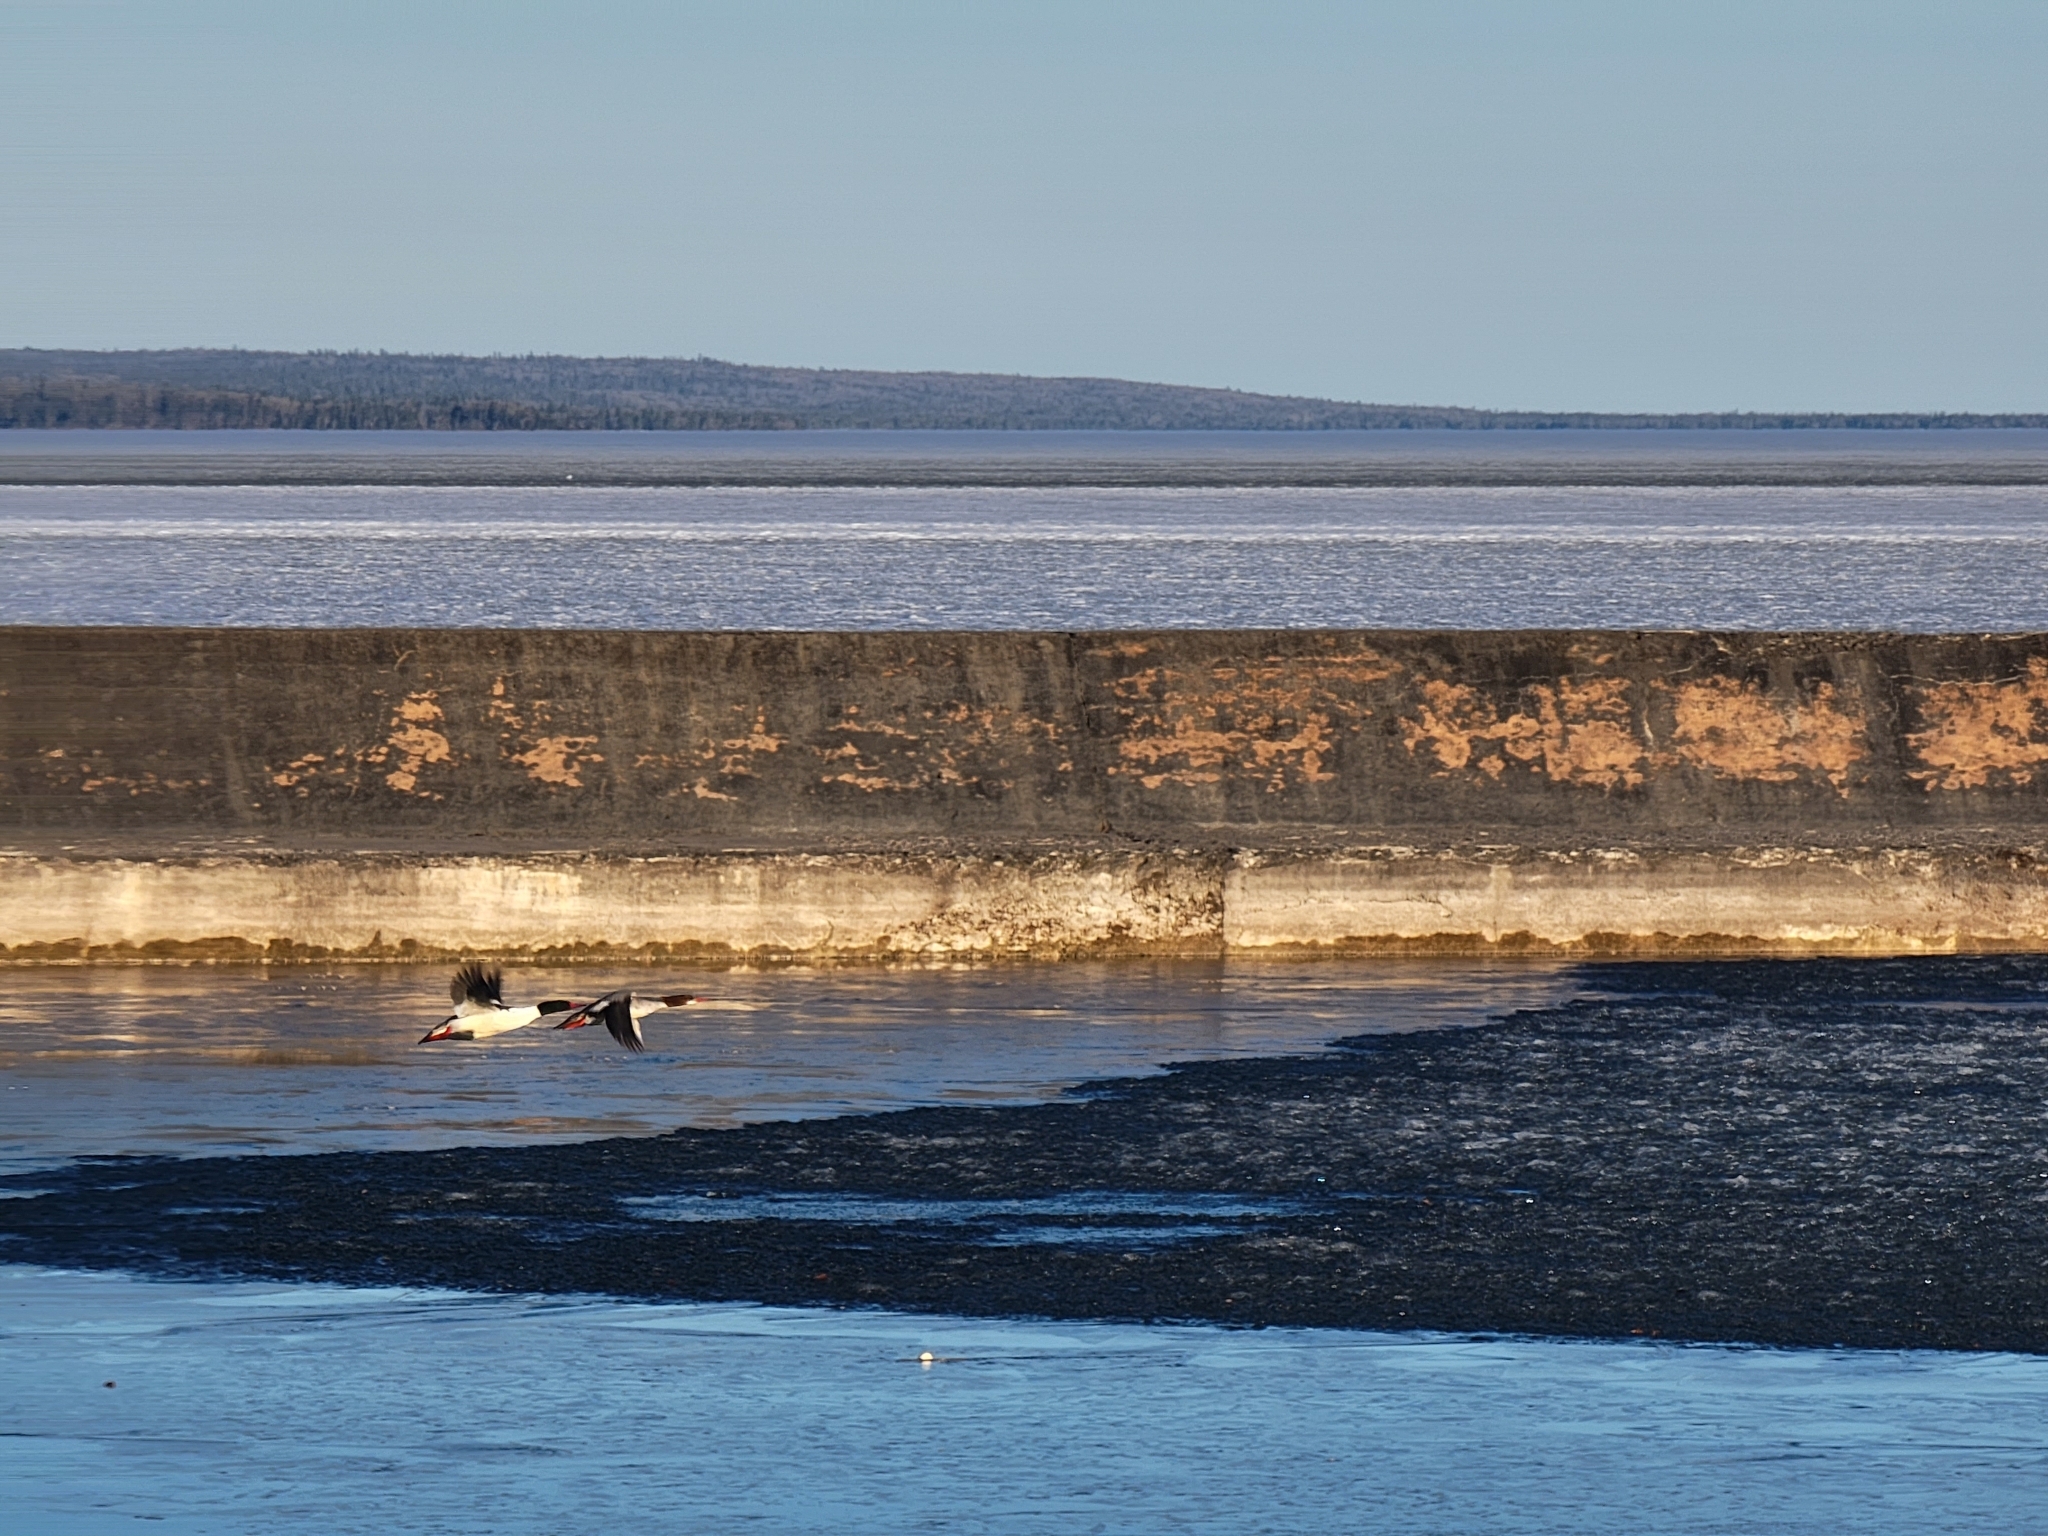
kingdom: Animalia
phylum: Chordata
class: Aves
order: Anseriformes
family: Anatidae
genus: Mergus
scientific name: Mergus merganser
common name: Common merganser
